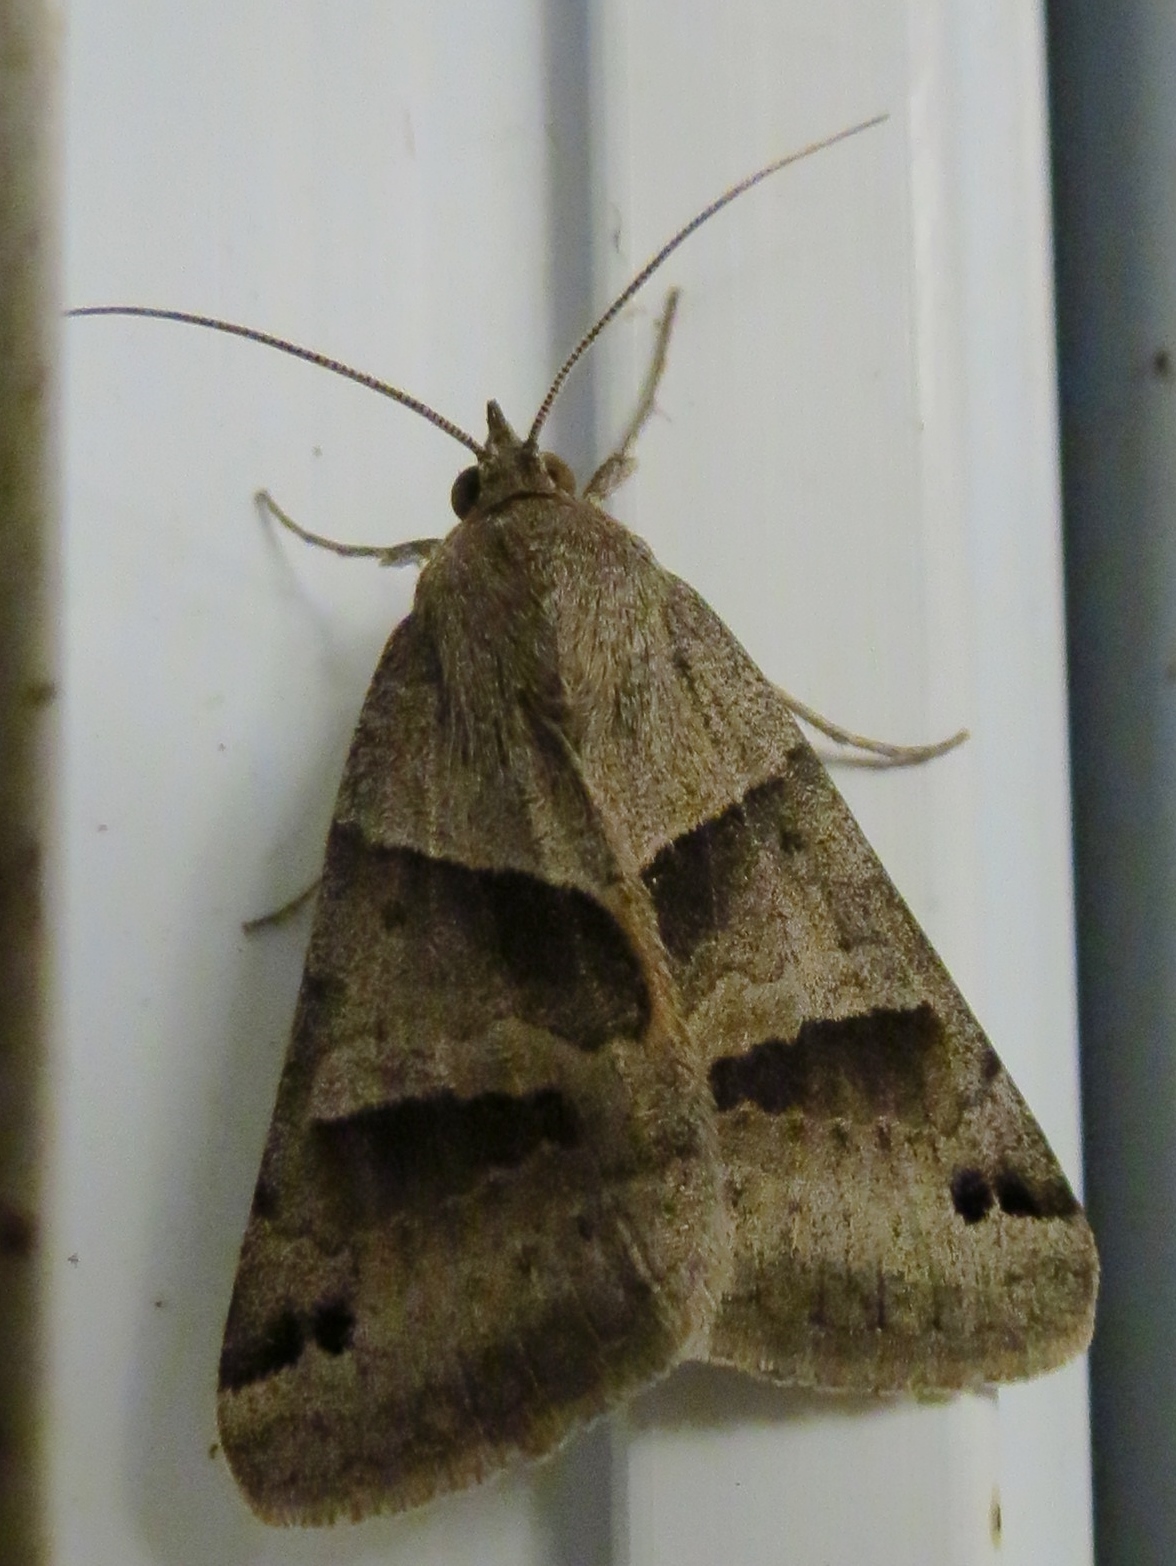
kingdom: Animalia
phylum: Arthropoda
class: Insecta
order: Lepidoptera
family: Erebidae
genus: Caenurgina
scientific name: Caenurgina erechtea
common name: Forage looper moth
